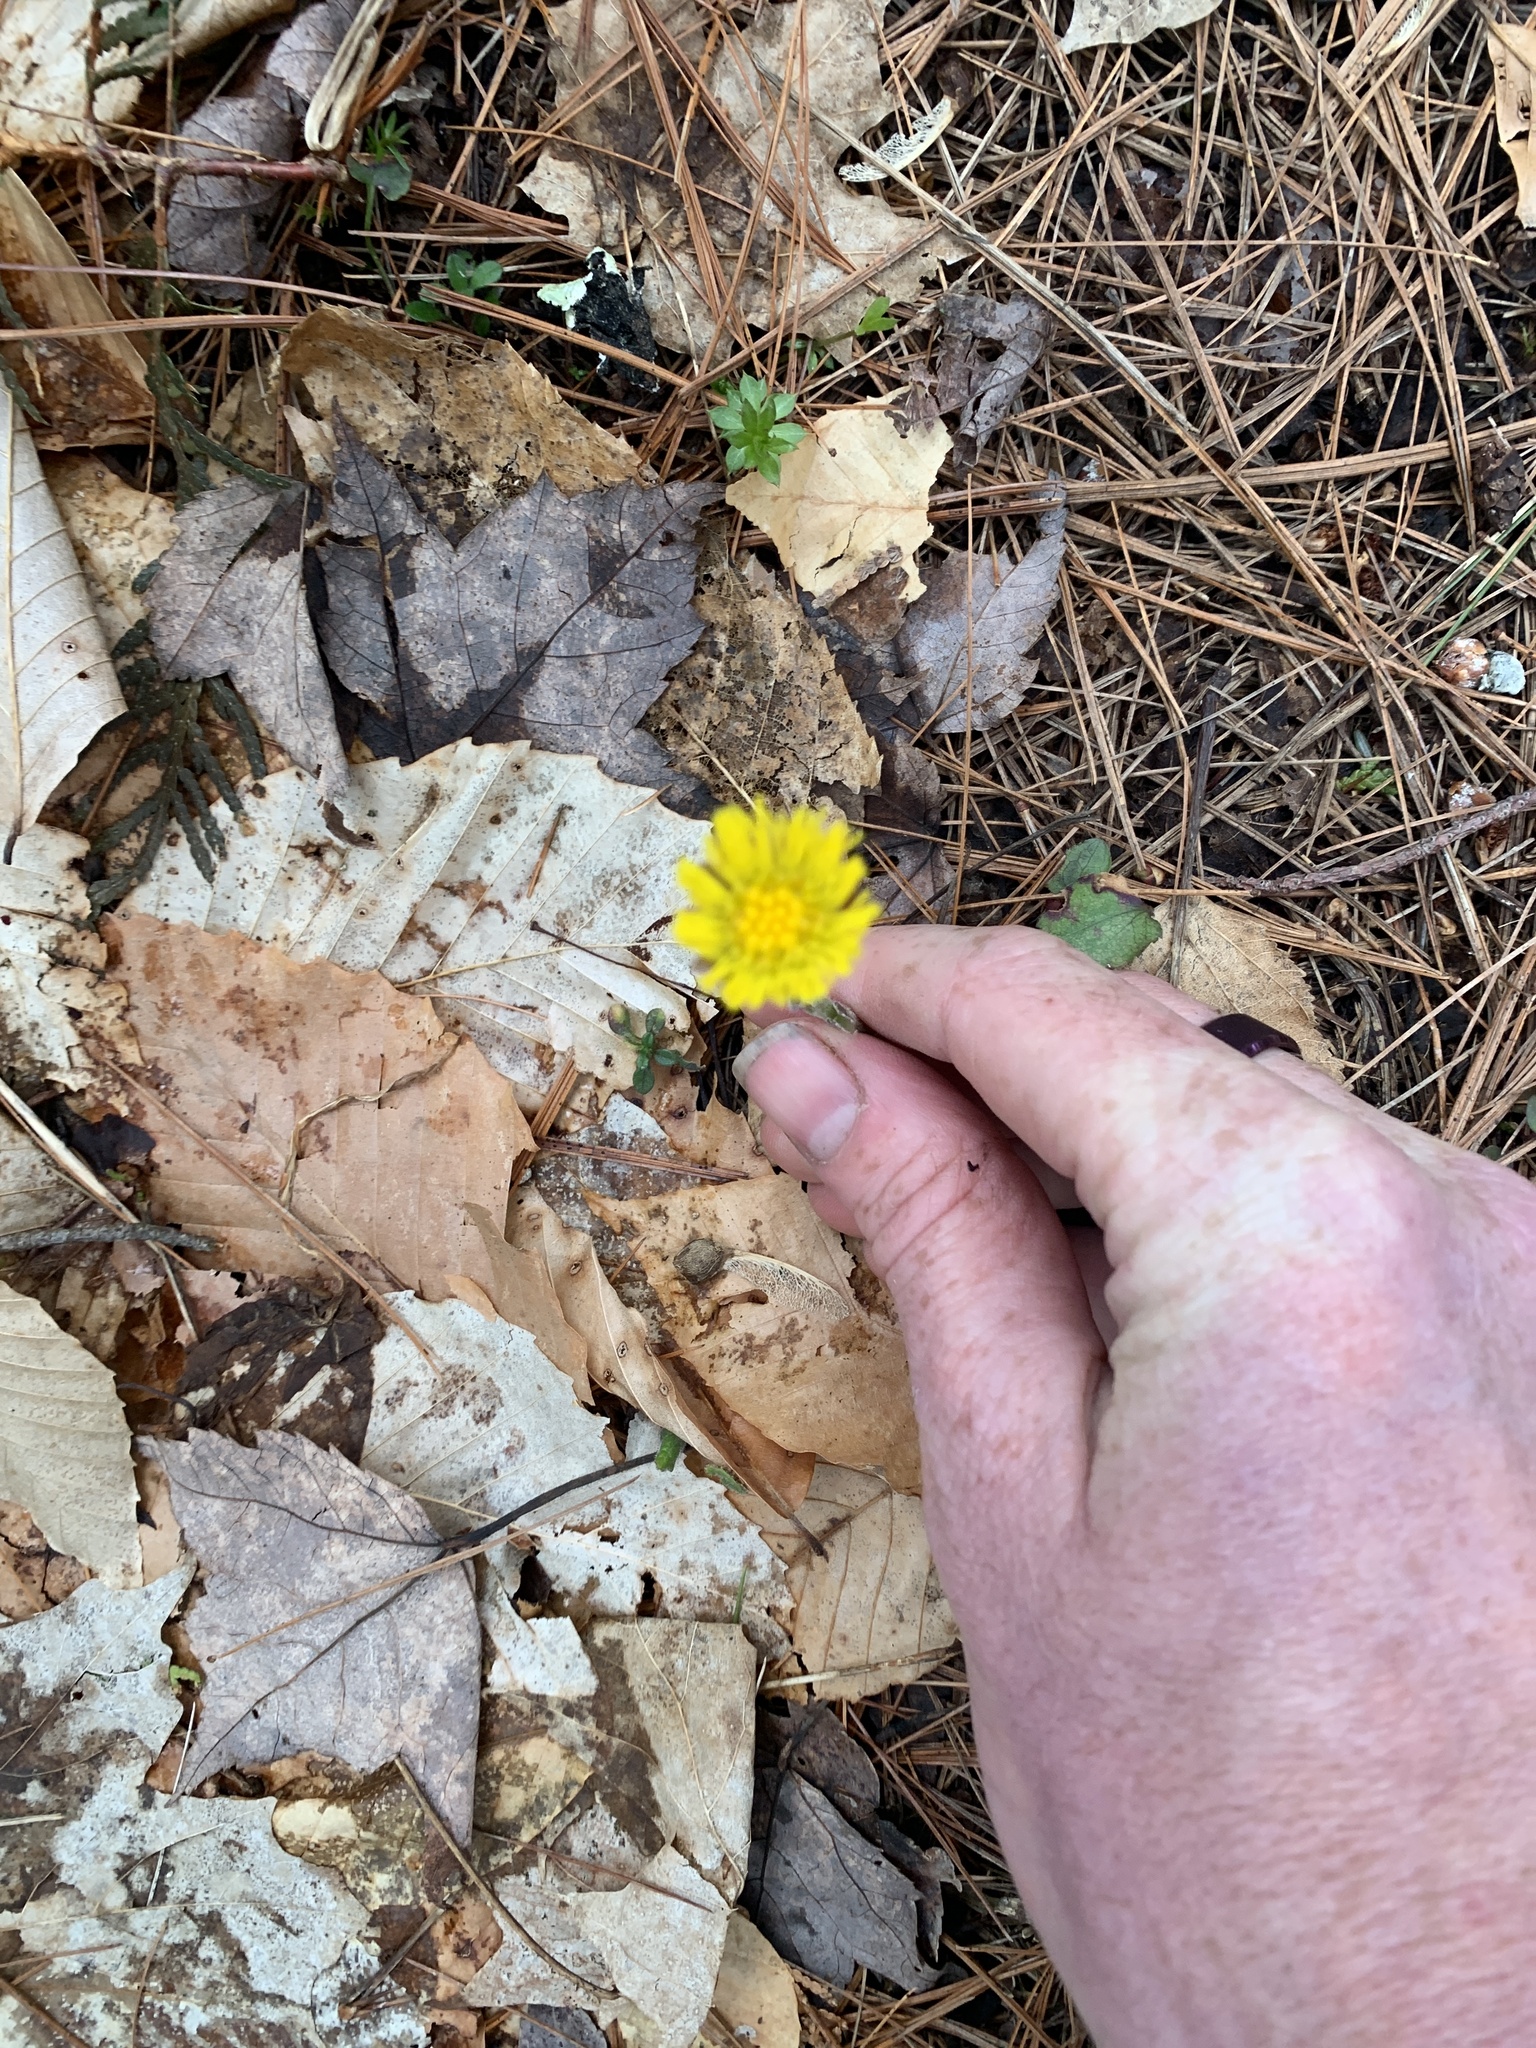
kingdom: Plantae
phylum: Tracheophyta
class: Magnoliopsida
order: Asterales
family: Asteraceae
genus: Tussilago
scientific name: Tussilago farfara
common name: Coltsfoot
